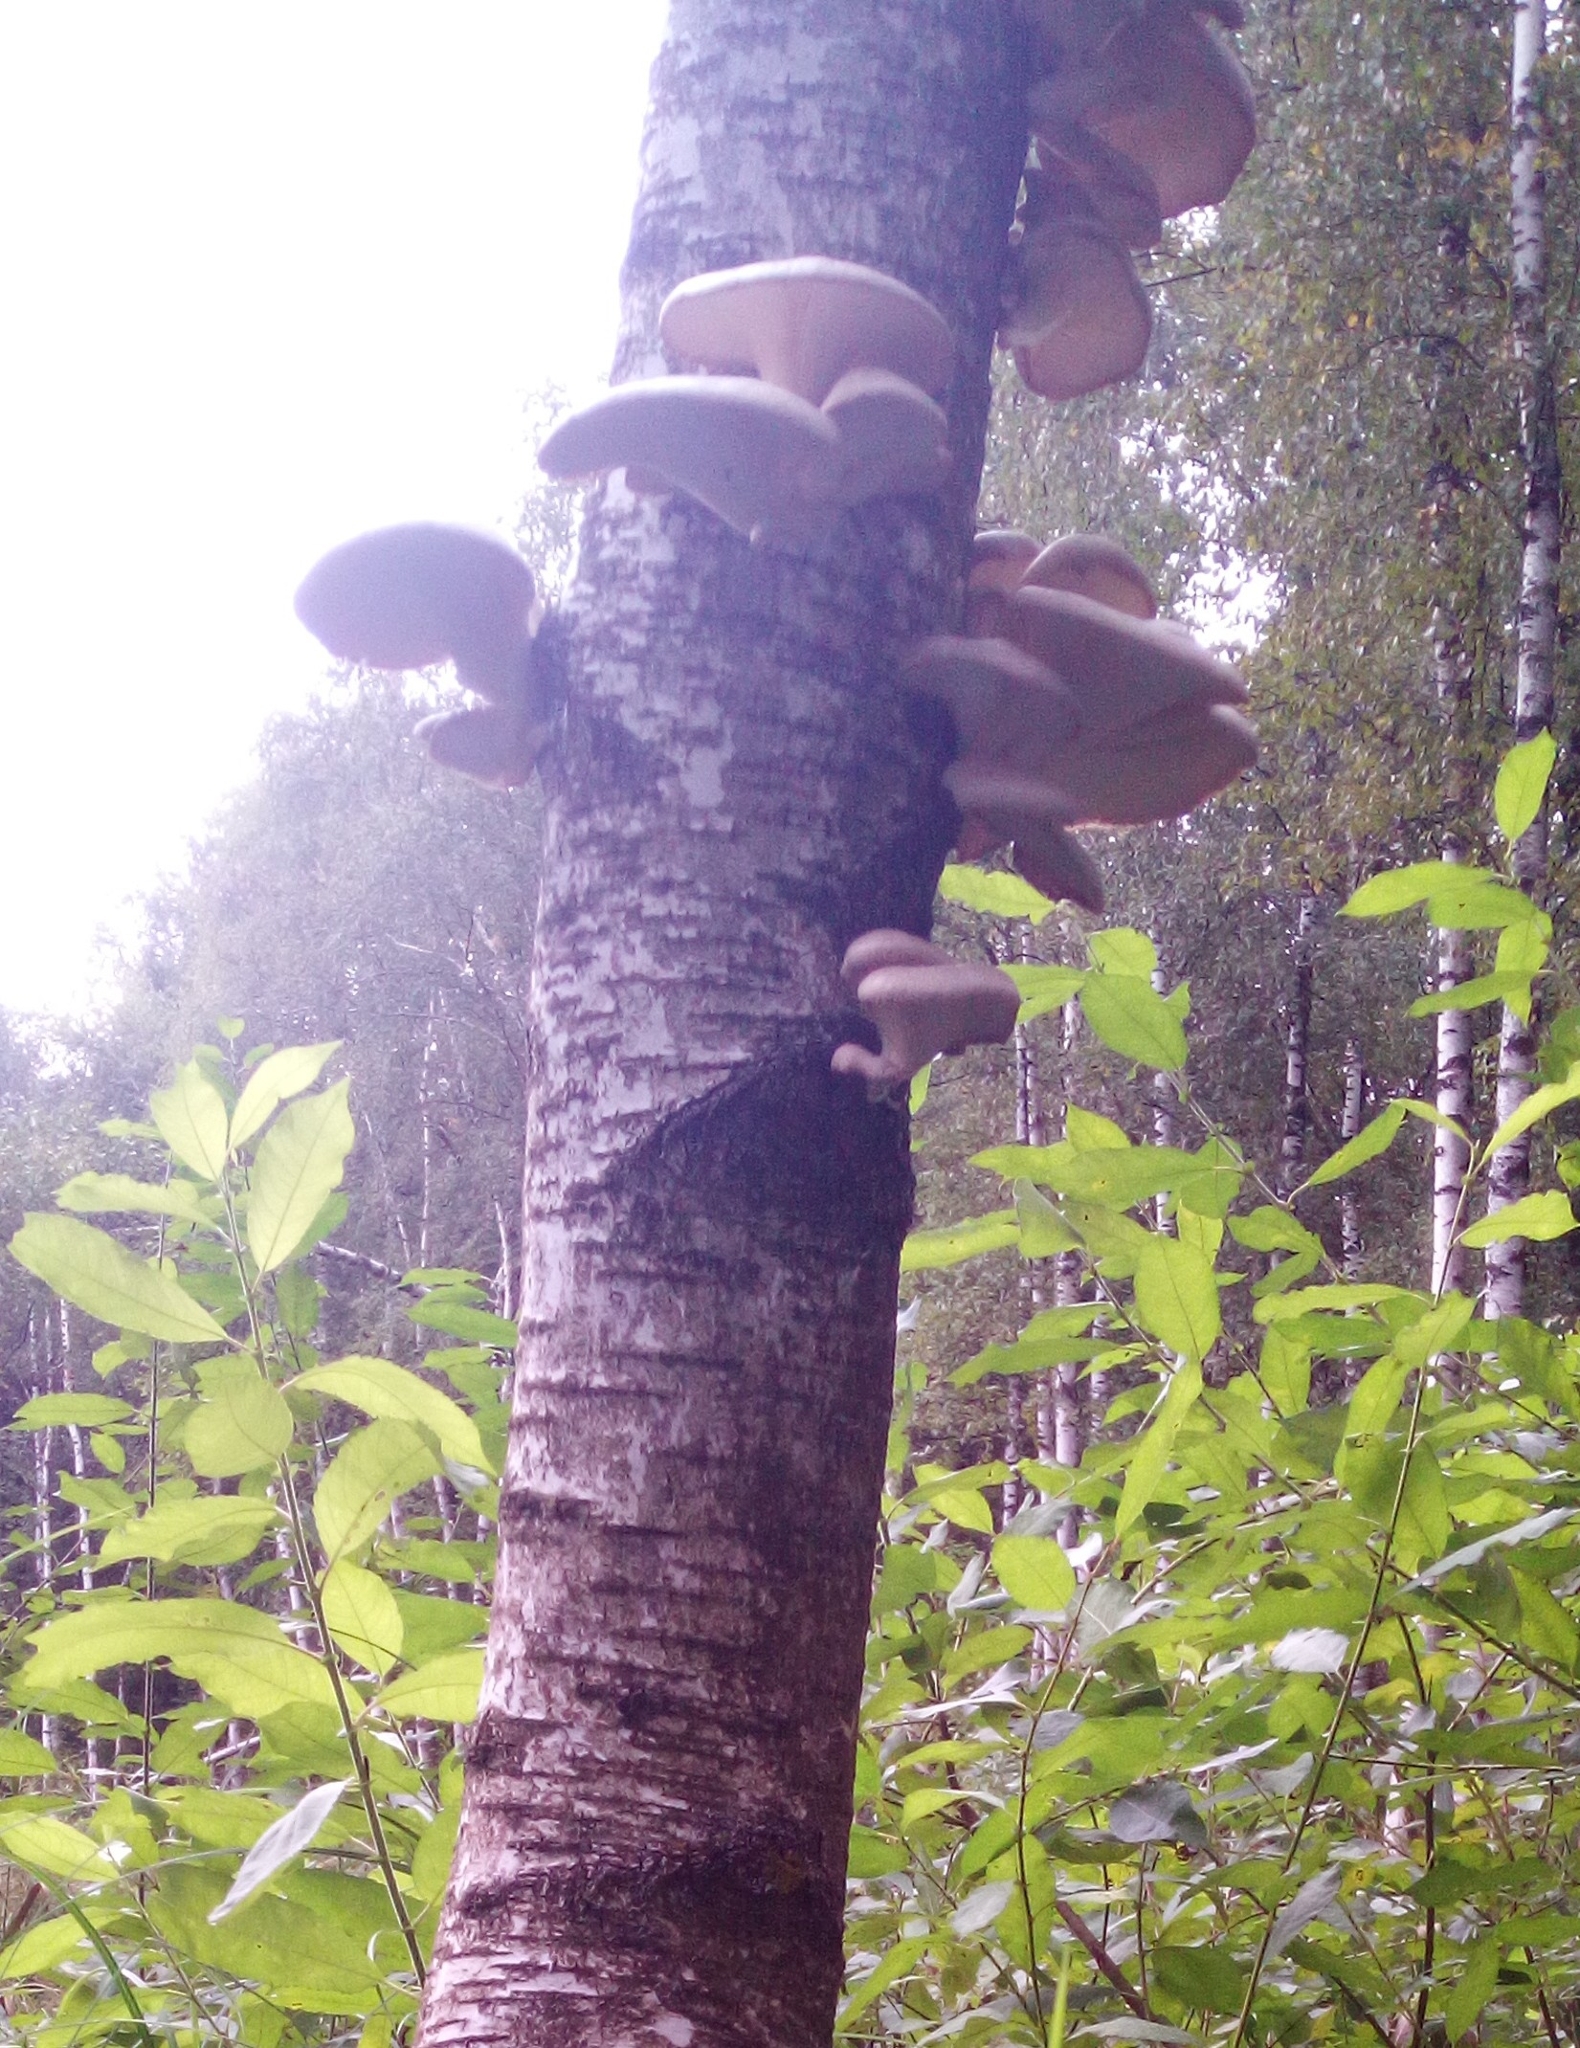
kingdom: Fungi
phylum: Basidiomycota
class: Agaricomycetes
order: Agaricales
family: Pleurotaceae
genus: Pleurotus
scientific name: Pleurotus pulmonarius
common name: Pale oyster
